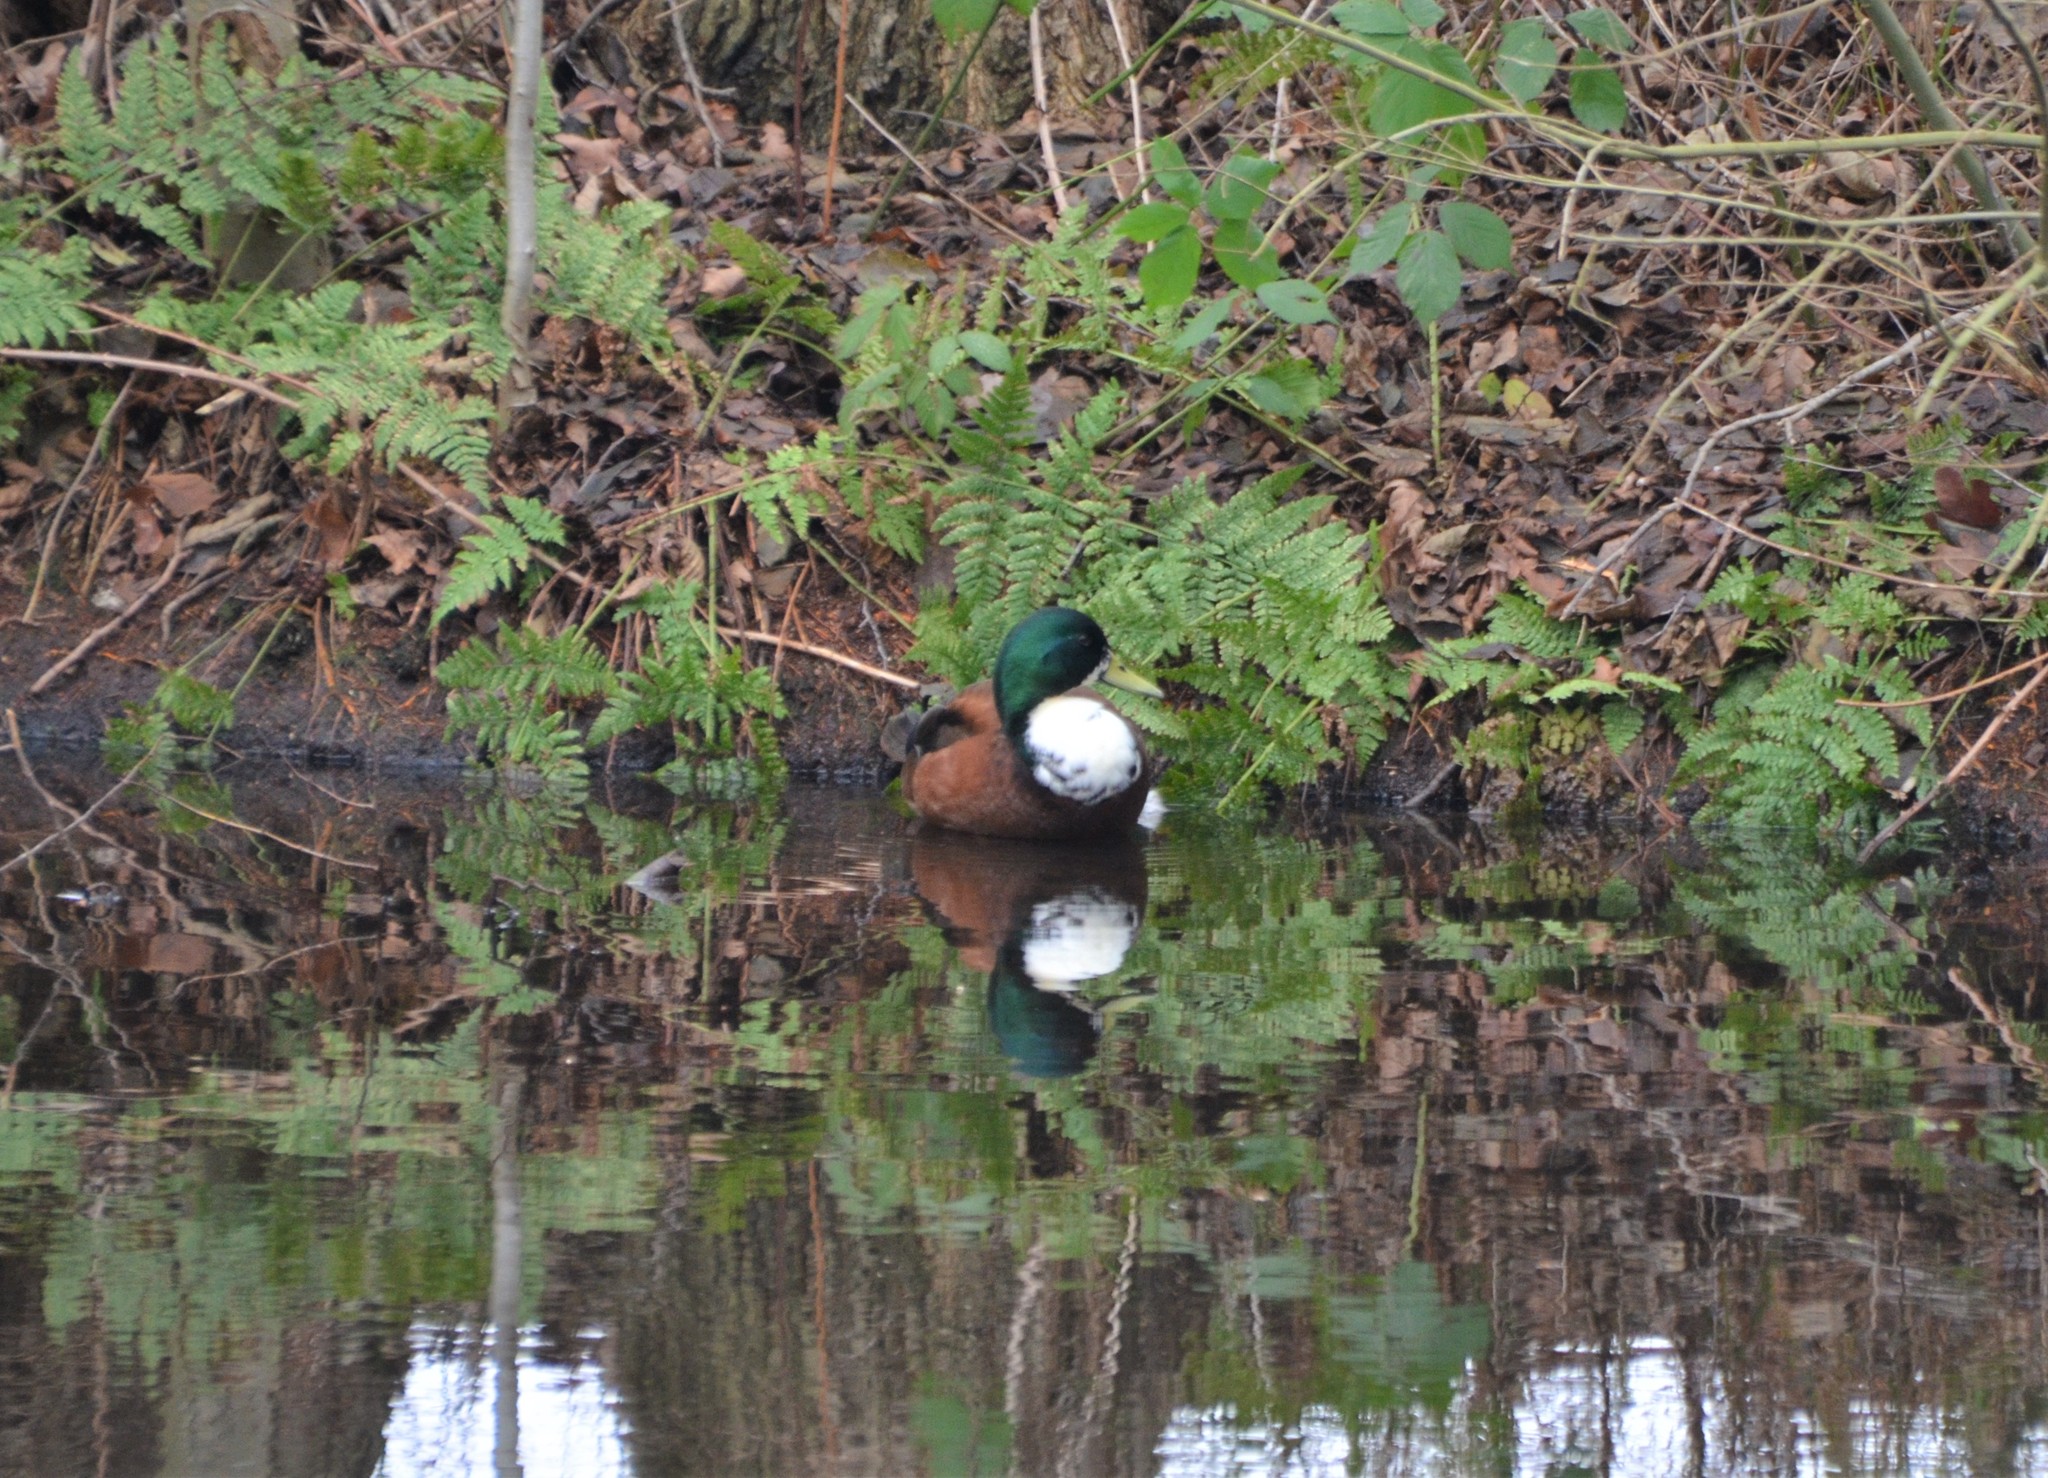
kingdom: Animalia
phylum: Chordata
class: Aves
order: Anseriformes
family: Anatidae
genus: Anas
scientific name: Anas platyrhynchos
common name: Mallard
